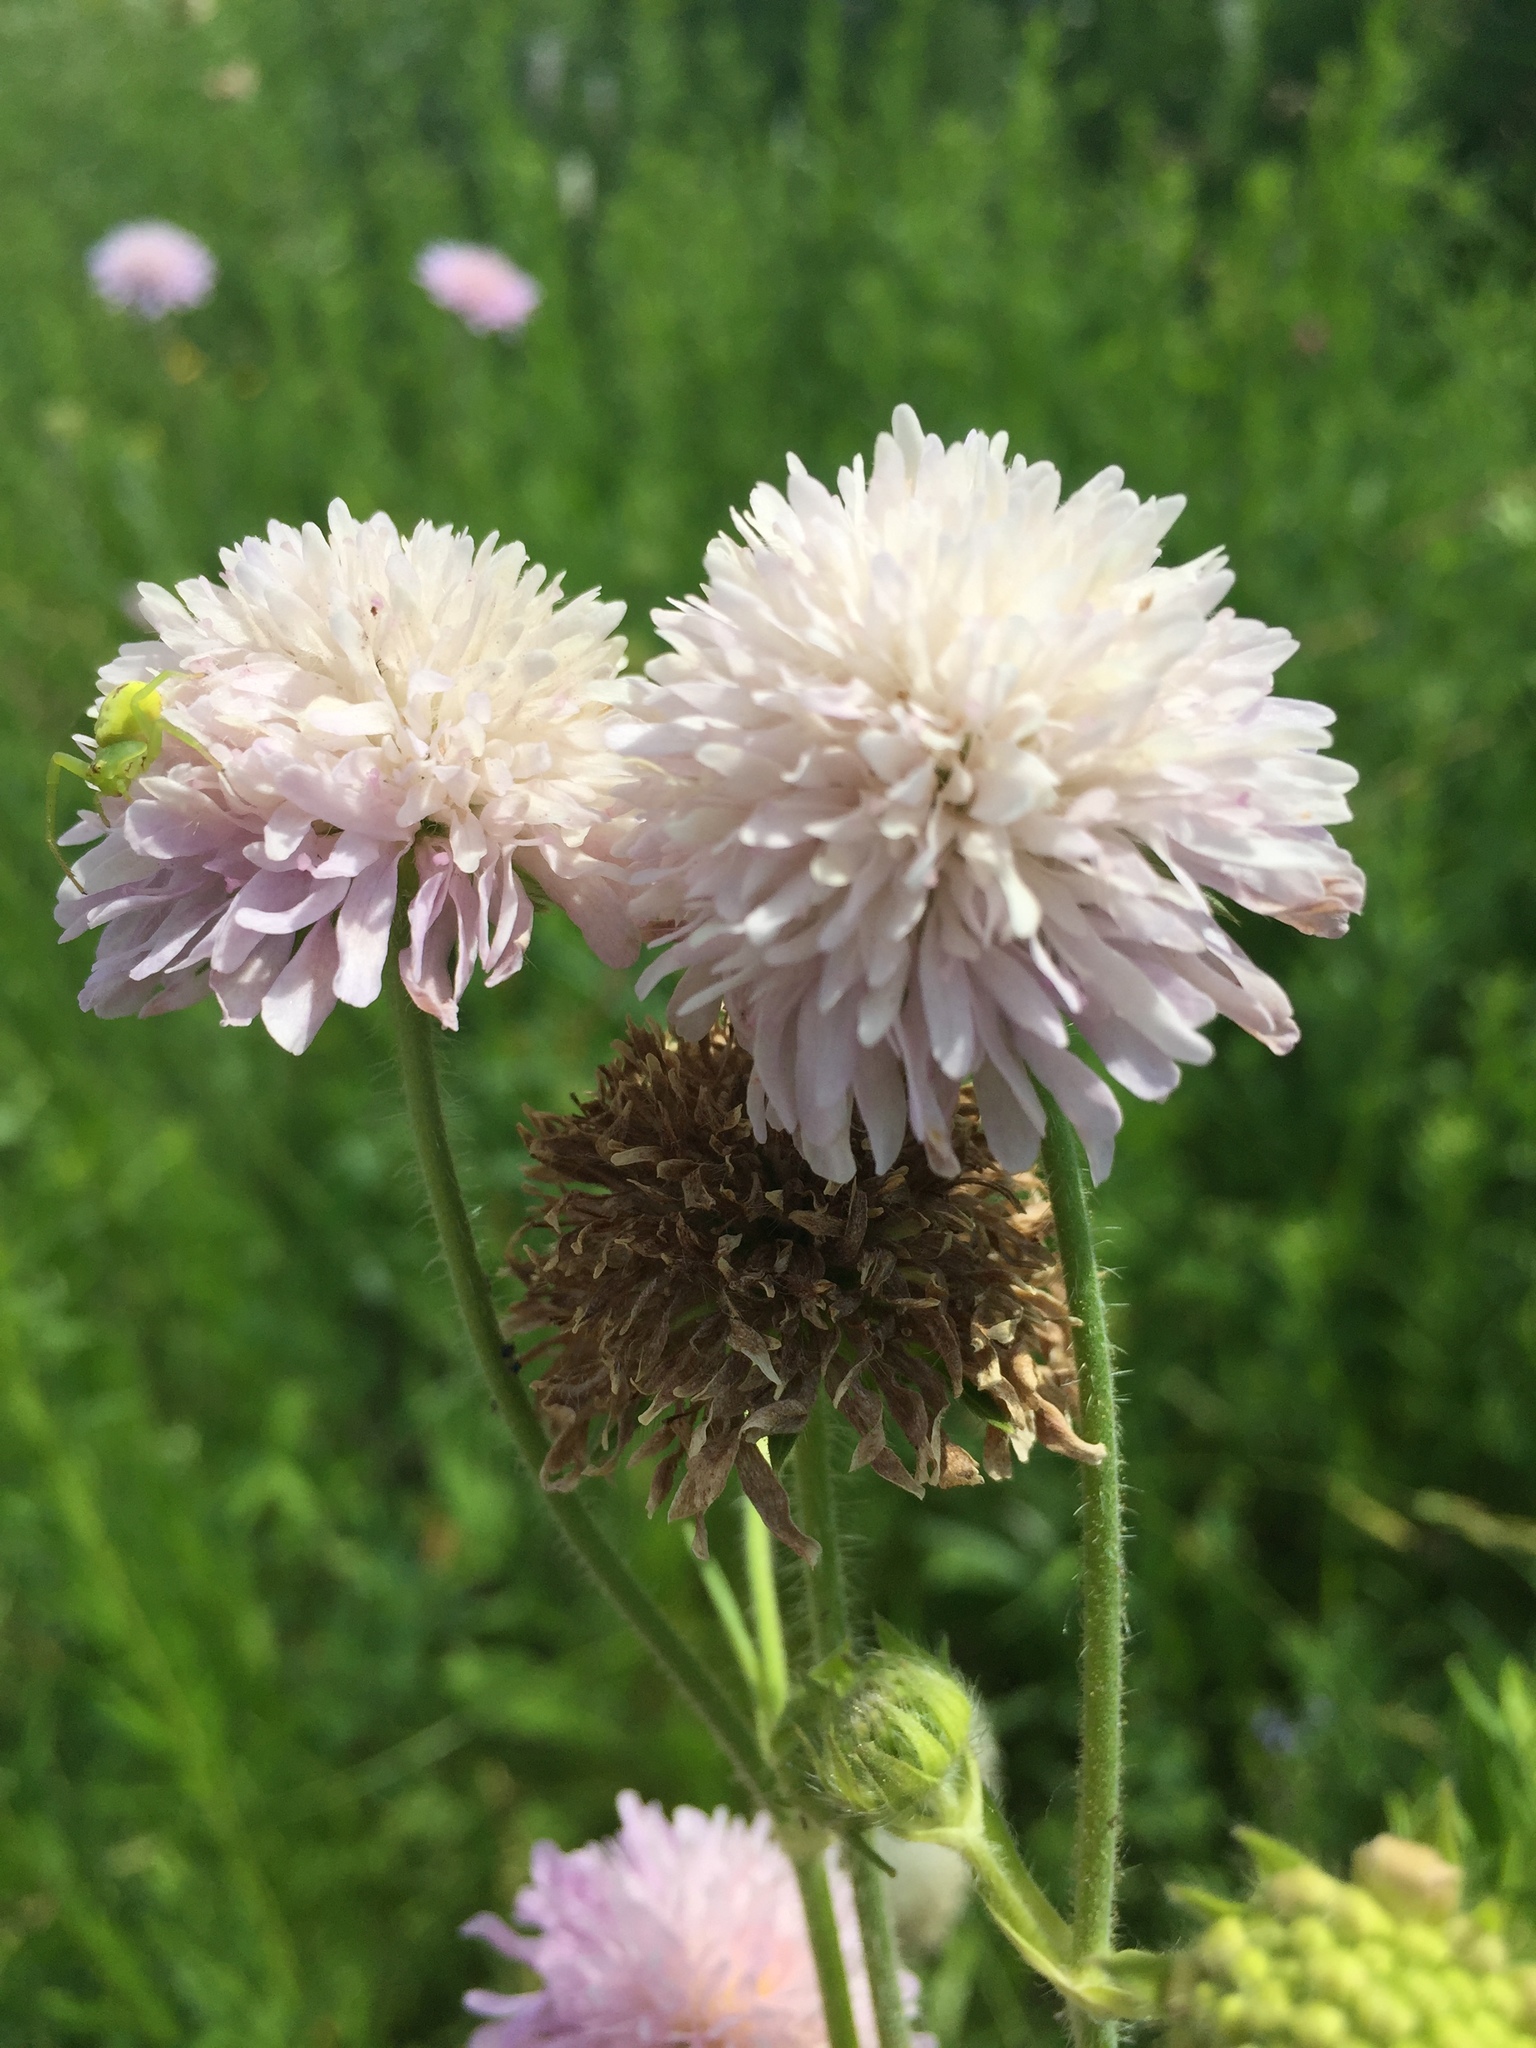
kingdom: Plantae
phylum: Tracheophyta
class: Magnoliopsida
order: Dipsacales
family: Caprifoliaceae
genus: Knautia
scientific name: Knautia arvensis
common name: Field scabiosa
